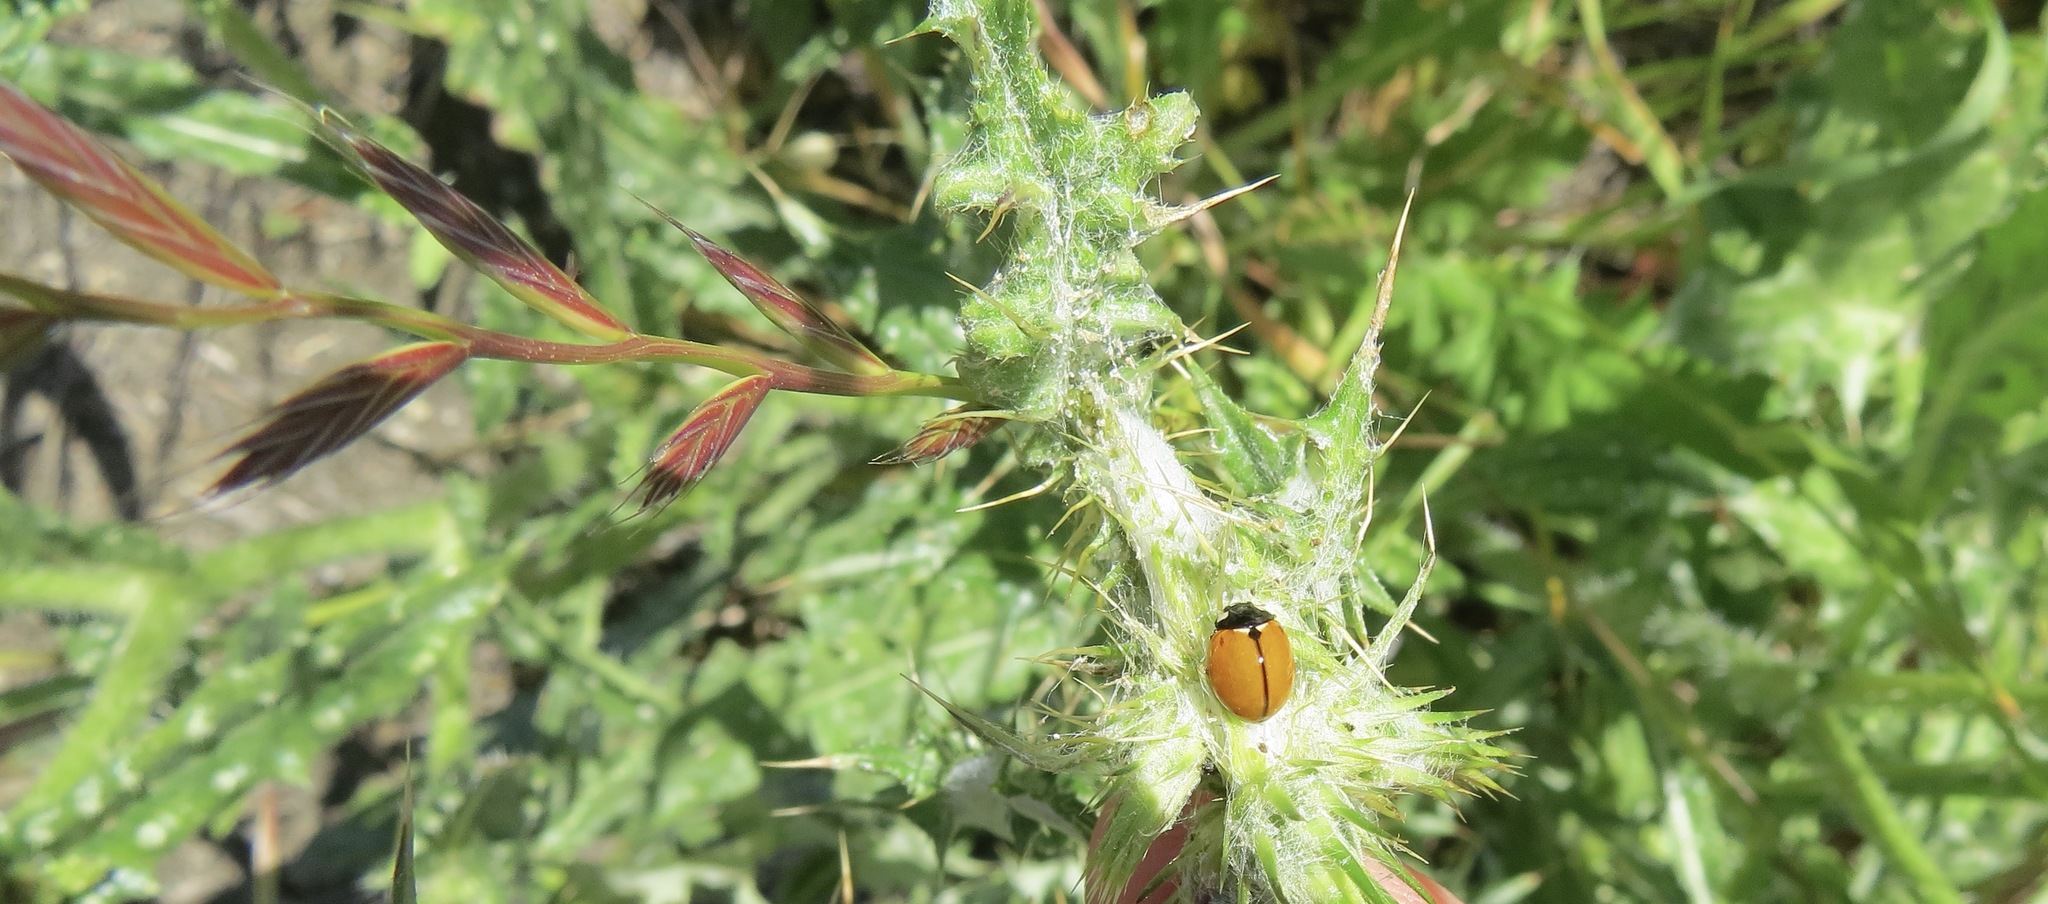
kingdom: Animalia
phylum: Arthropoda
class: Insecta
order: Coleoptera
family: Coccinellidae
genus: Coccinella
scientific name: Coccinella californica
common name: Lady beetle
